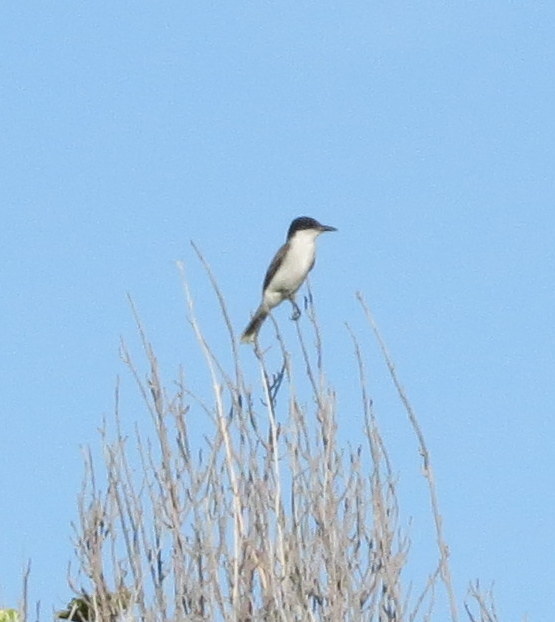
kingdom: Animalia
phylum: Chordata
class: Aves
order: Passeriformes
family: Tyrannidae
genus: Tyrannus
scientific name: Tyrannus caudifasciatus
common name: Loggerhead kingbird
